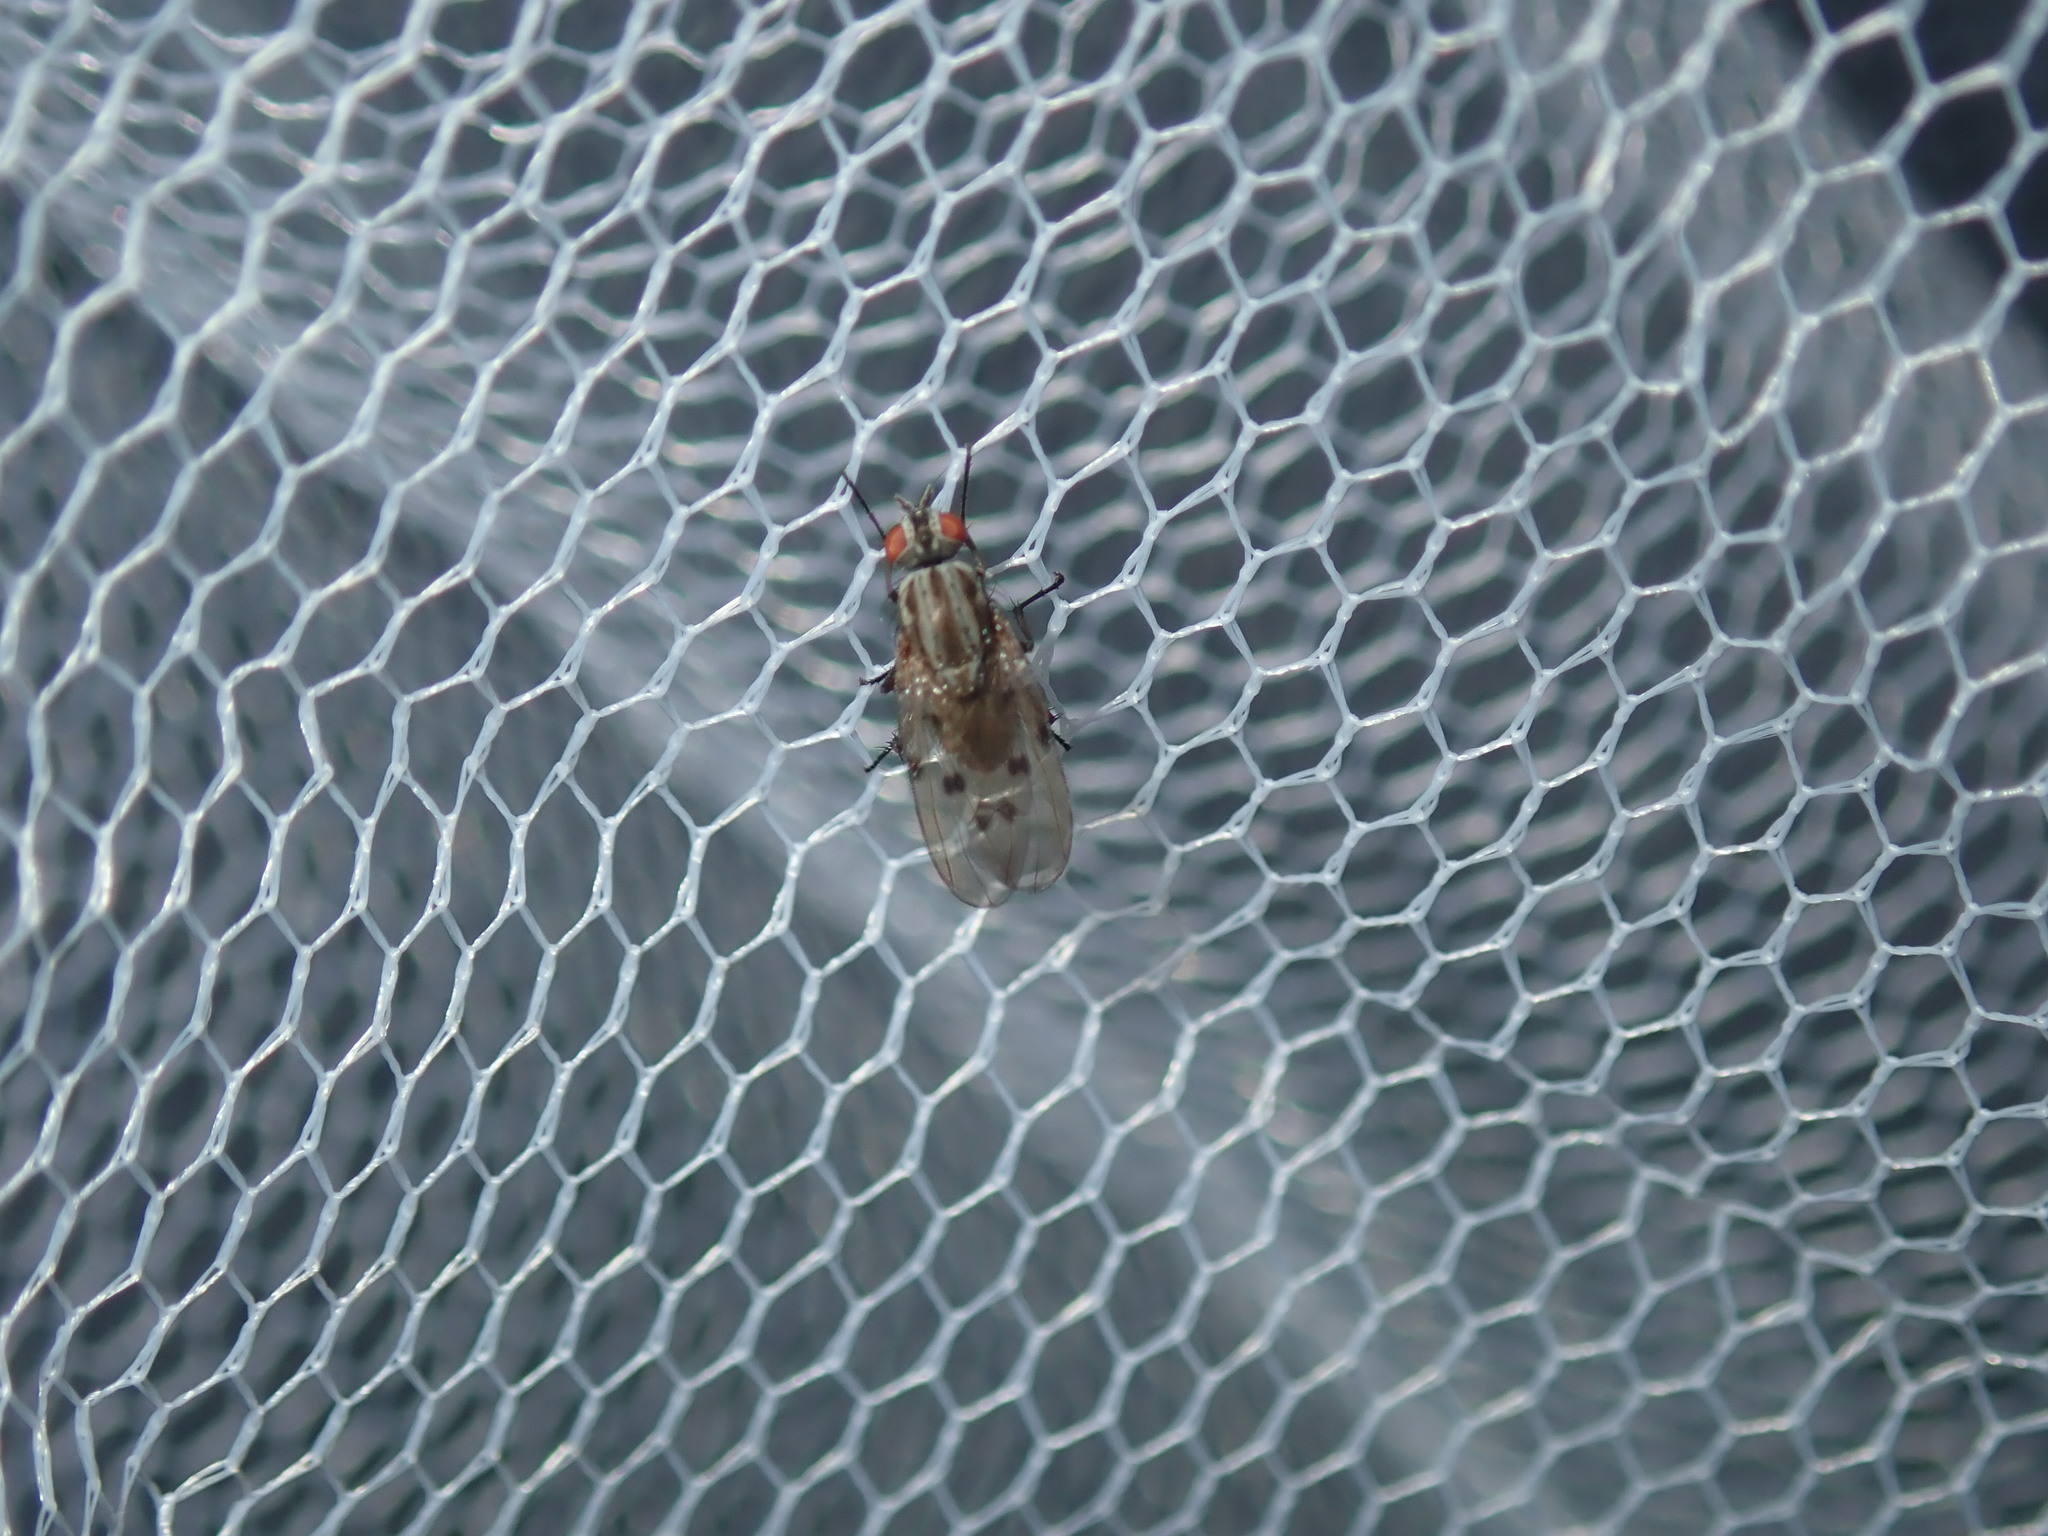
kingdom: Animalia
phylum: Arthropoda
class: Insecta
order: Diptera
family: Anthomyiidae
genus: Anthomyia
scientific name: Anthomyia punctipennis
